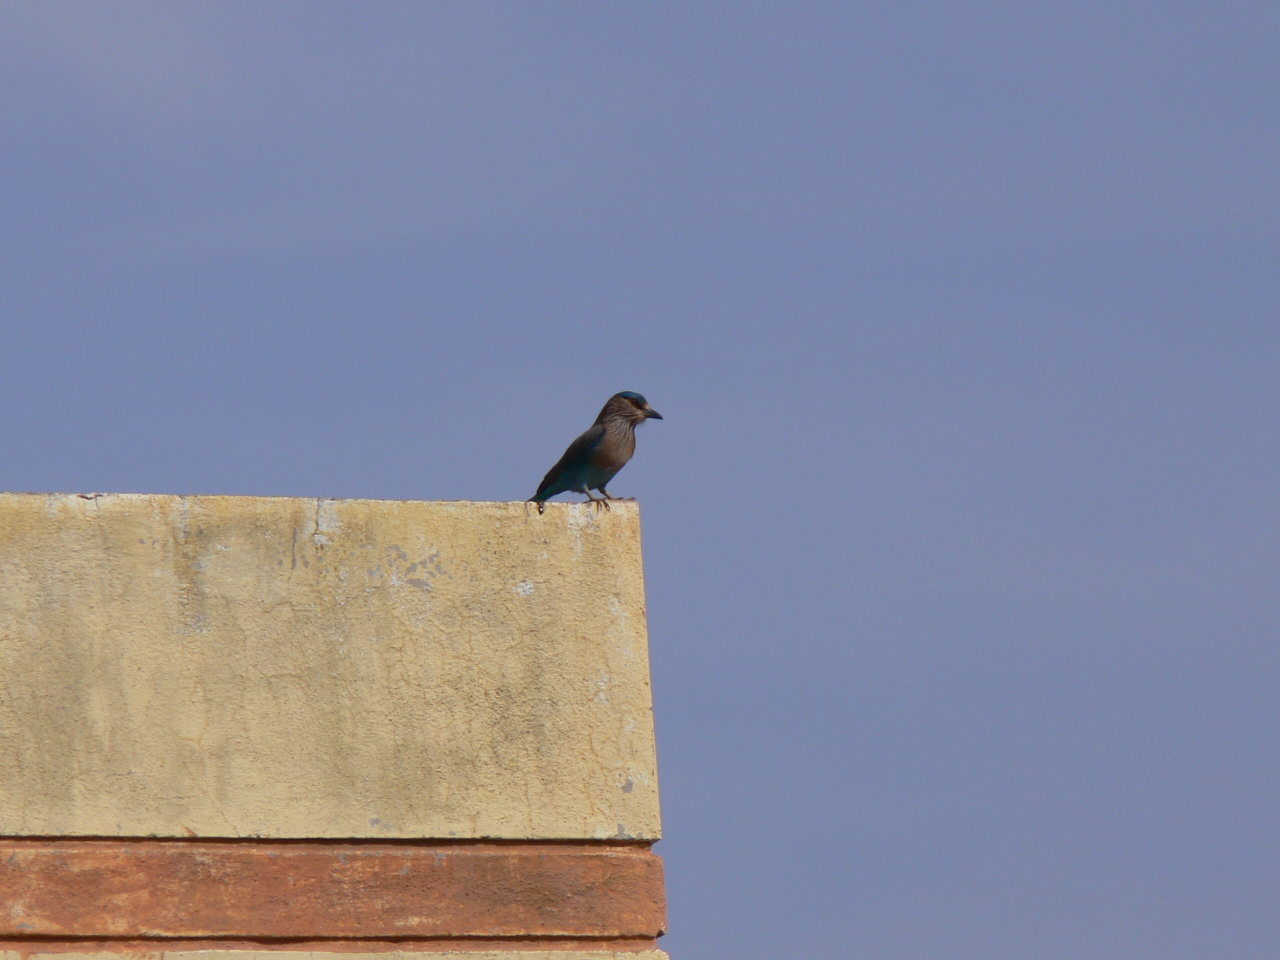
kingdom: Animalia
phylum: Chordata
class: Aves
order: Coraciiformes
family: Coraciidae
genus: Coracias
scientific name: Coracias benghalensis
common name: Indian roller
